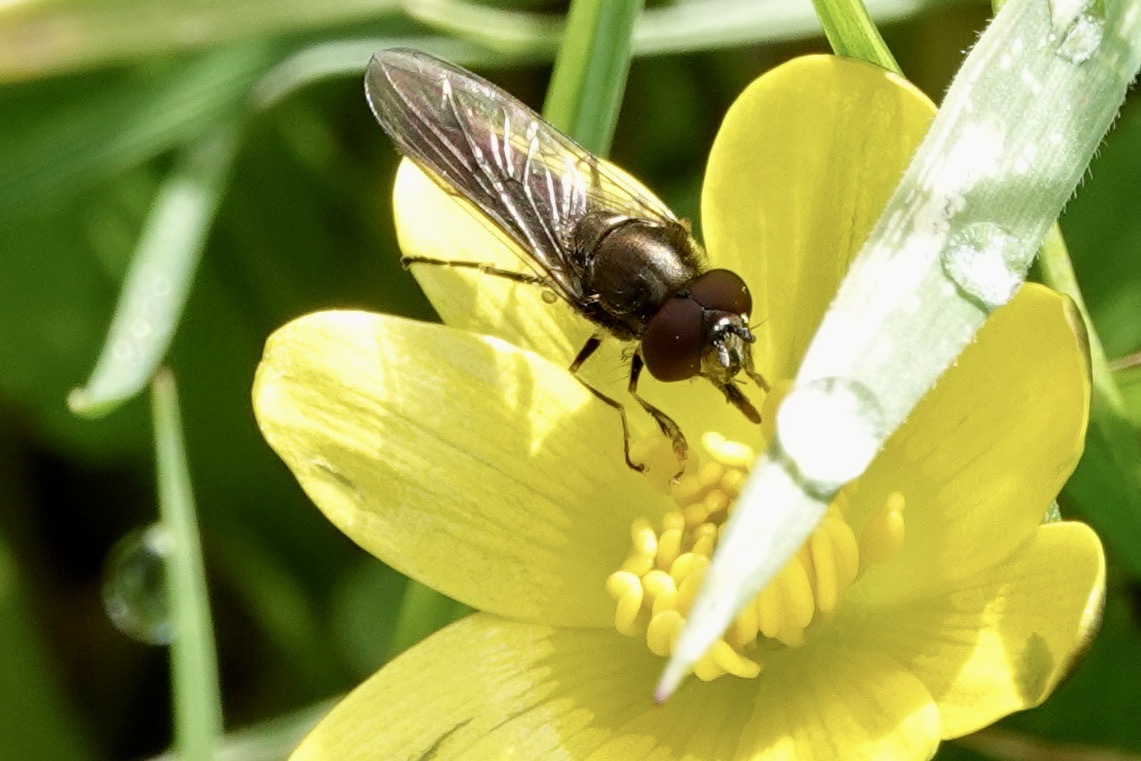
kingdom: Animalia
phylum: Arthropoda
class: Insecta
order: Diptera
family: Syrphidae
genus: Platycheirus
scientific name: Platycheirus albimanus
